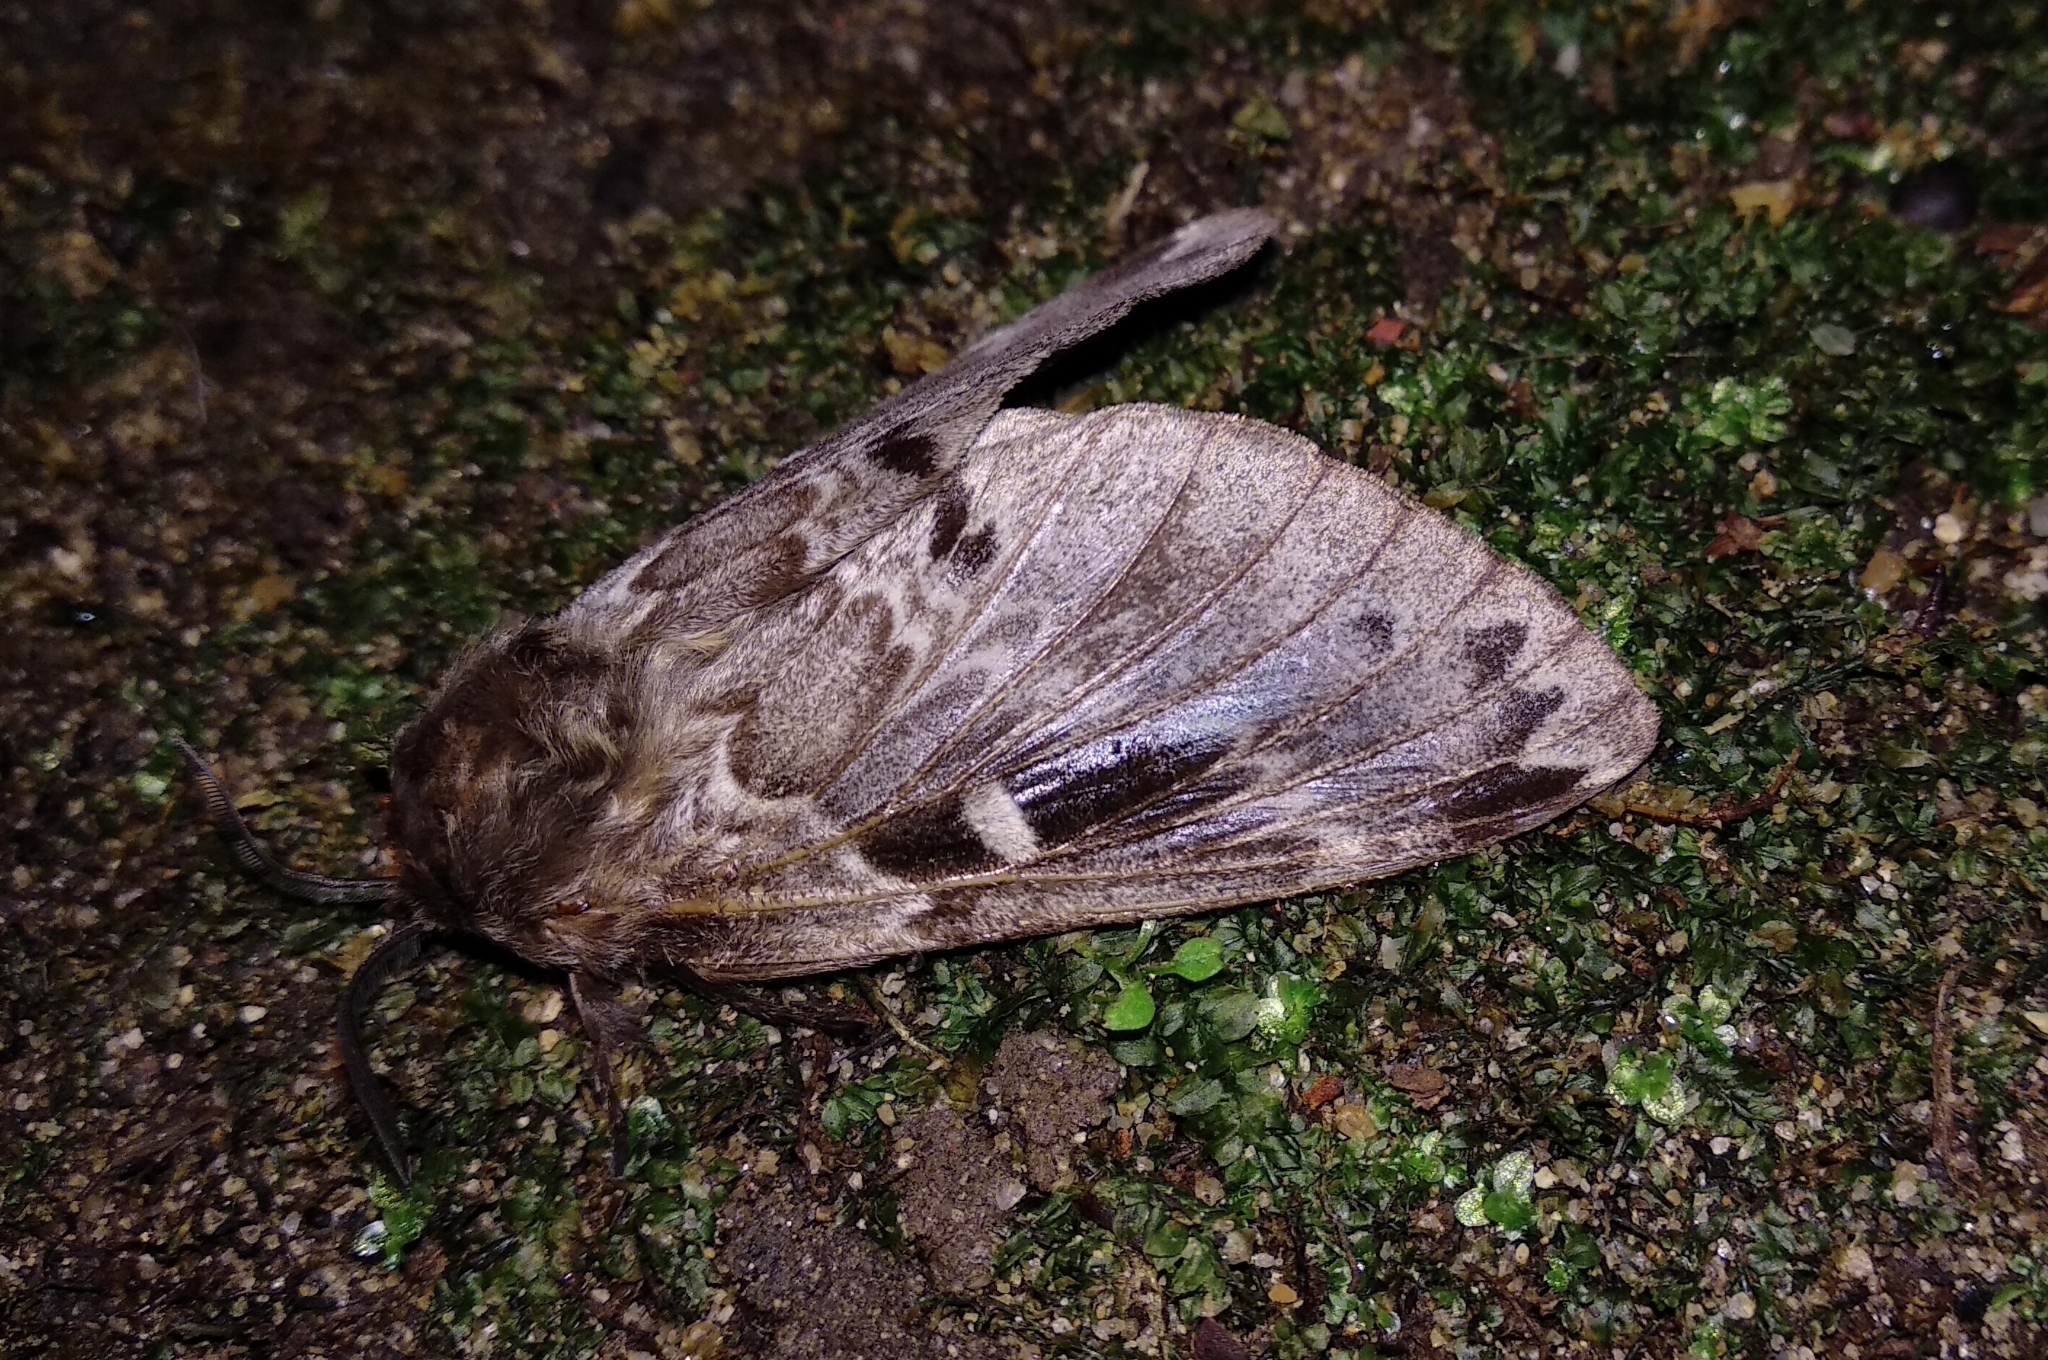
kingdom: Animalia
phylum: Arthropoda
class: Insecta
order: Lepidoptera
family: Lasiocampidae
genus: Pyrosis
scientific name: Pyrosis eximia
